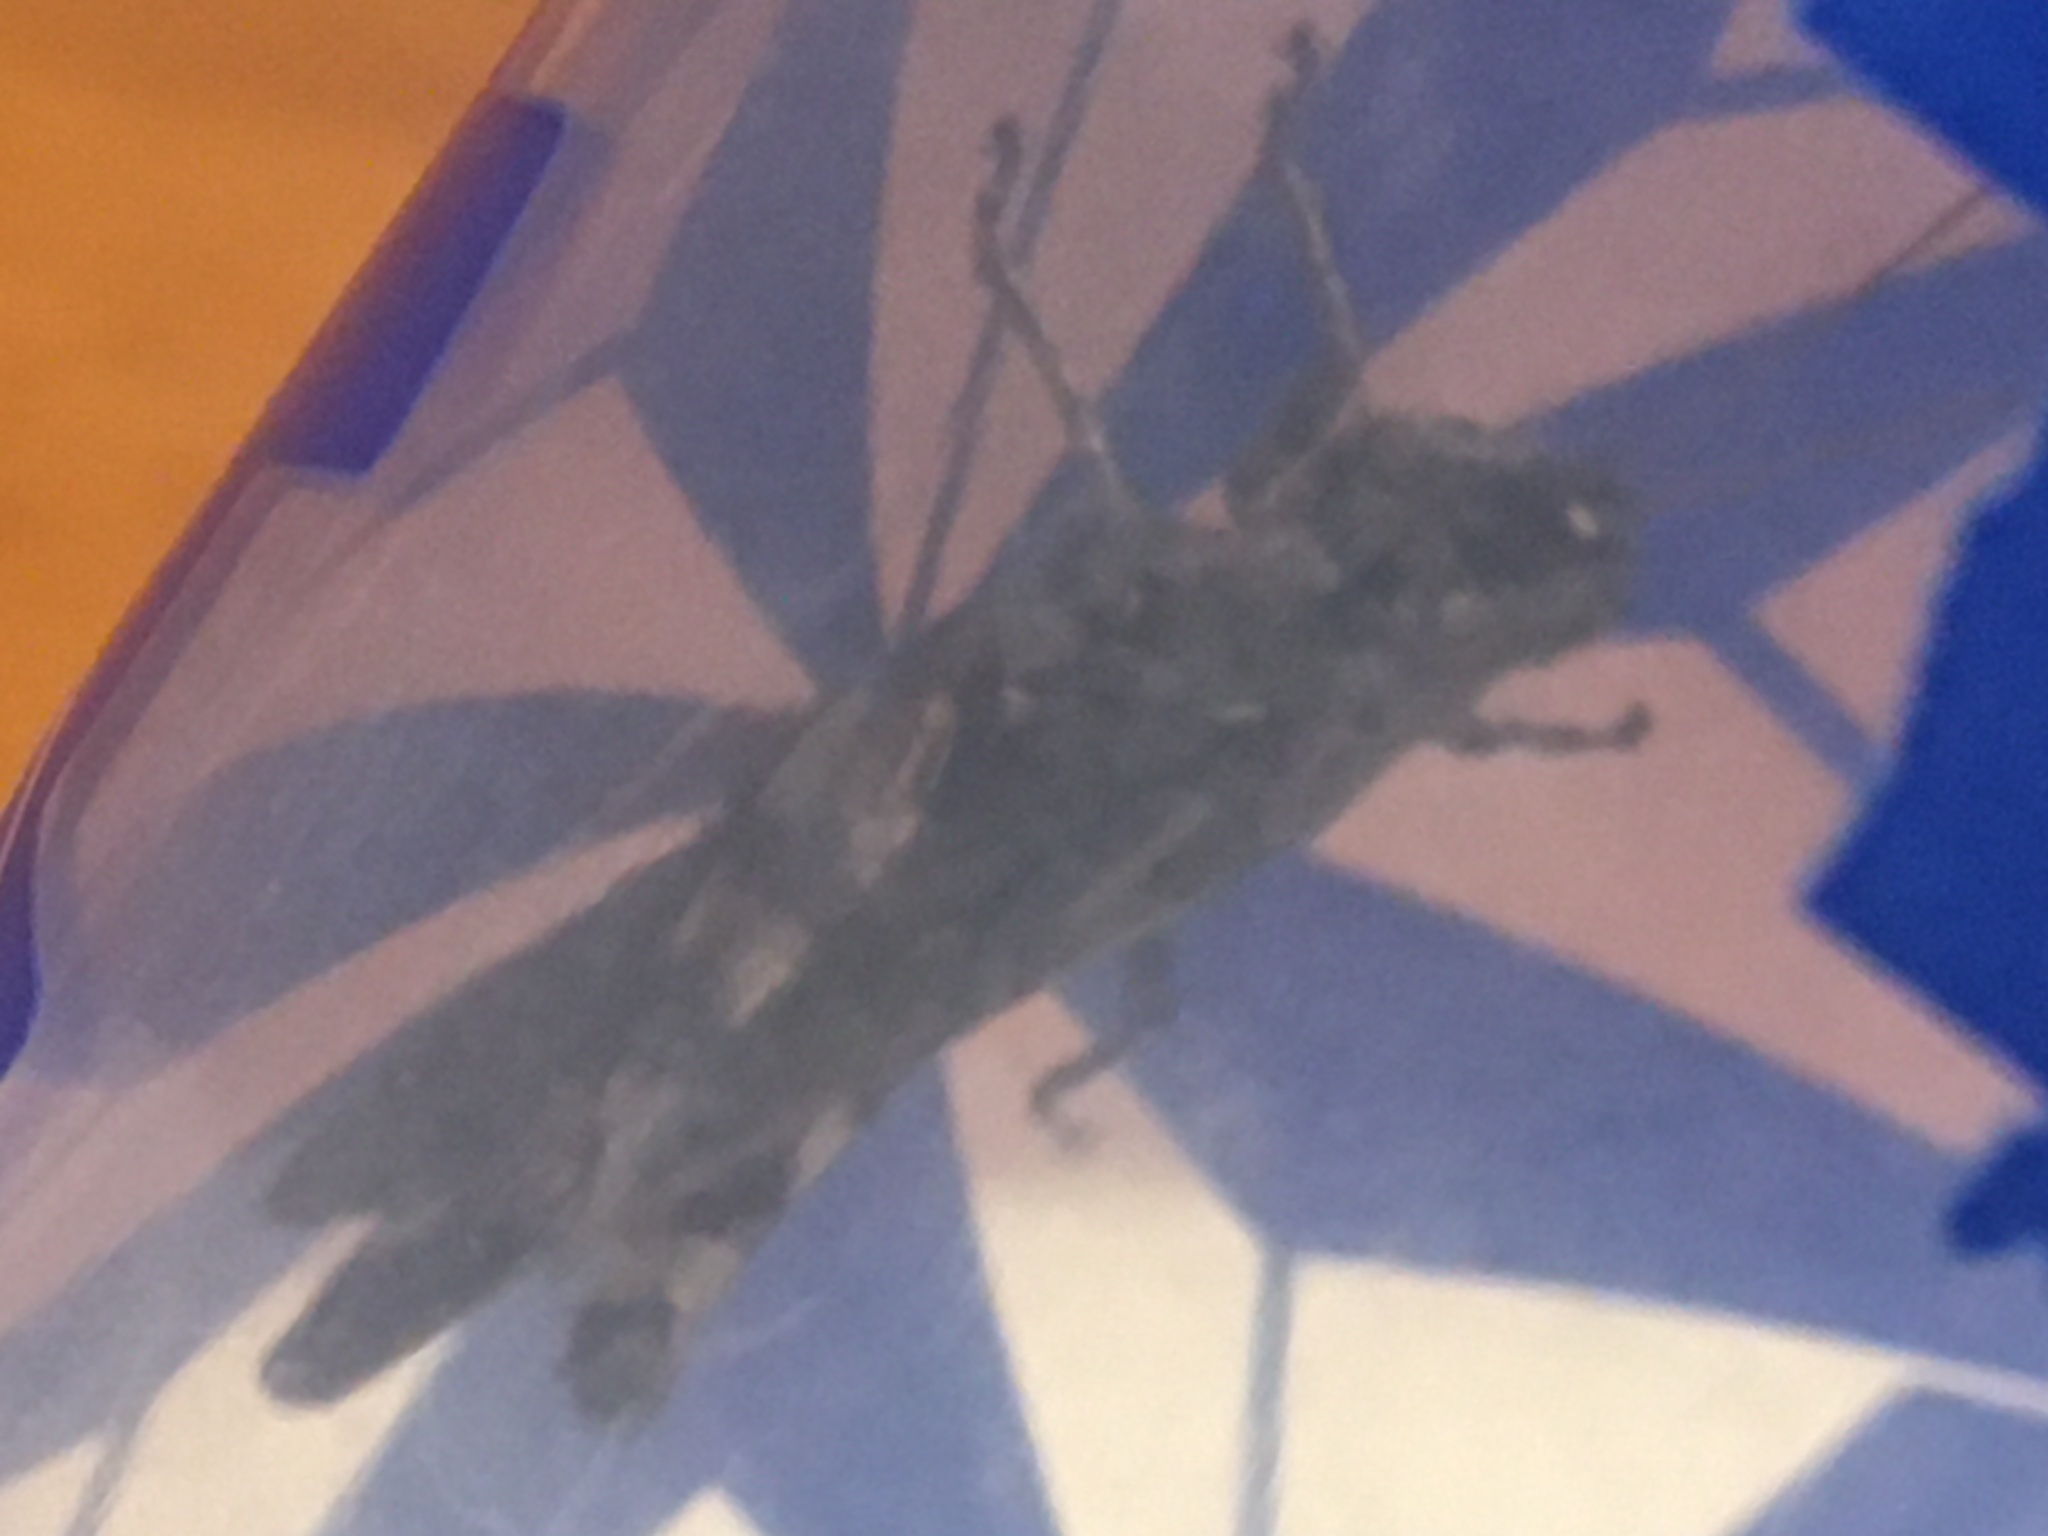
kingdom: Animalia
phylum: Arthropoda
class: Insecta
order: Orthoptera
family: Acrididae
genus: Melanoplus
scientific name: Melanoplus punctulatus
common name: Pine-tree spur-throat grasshopper
